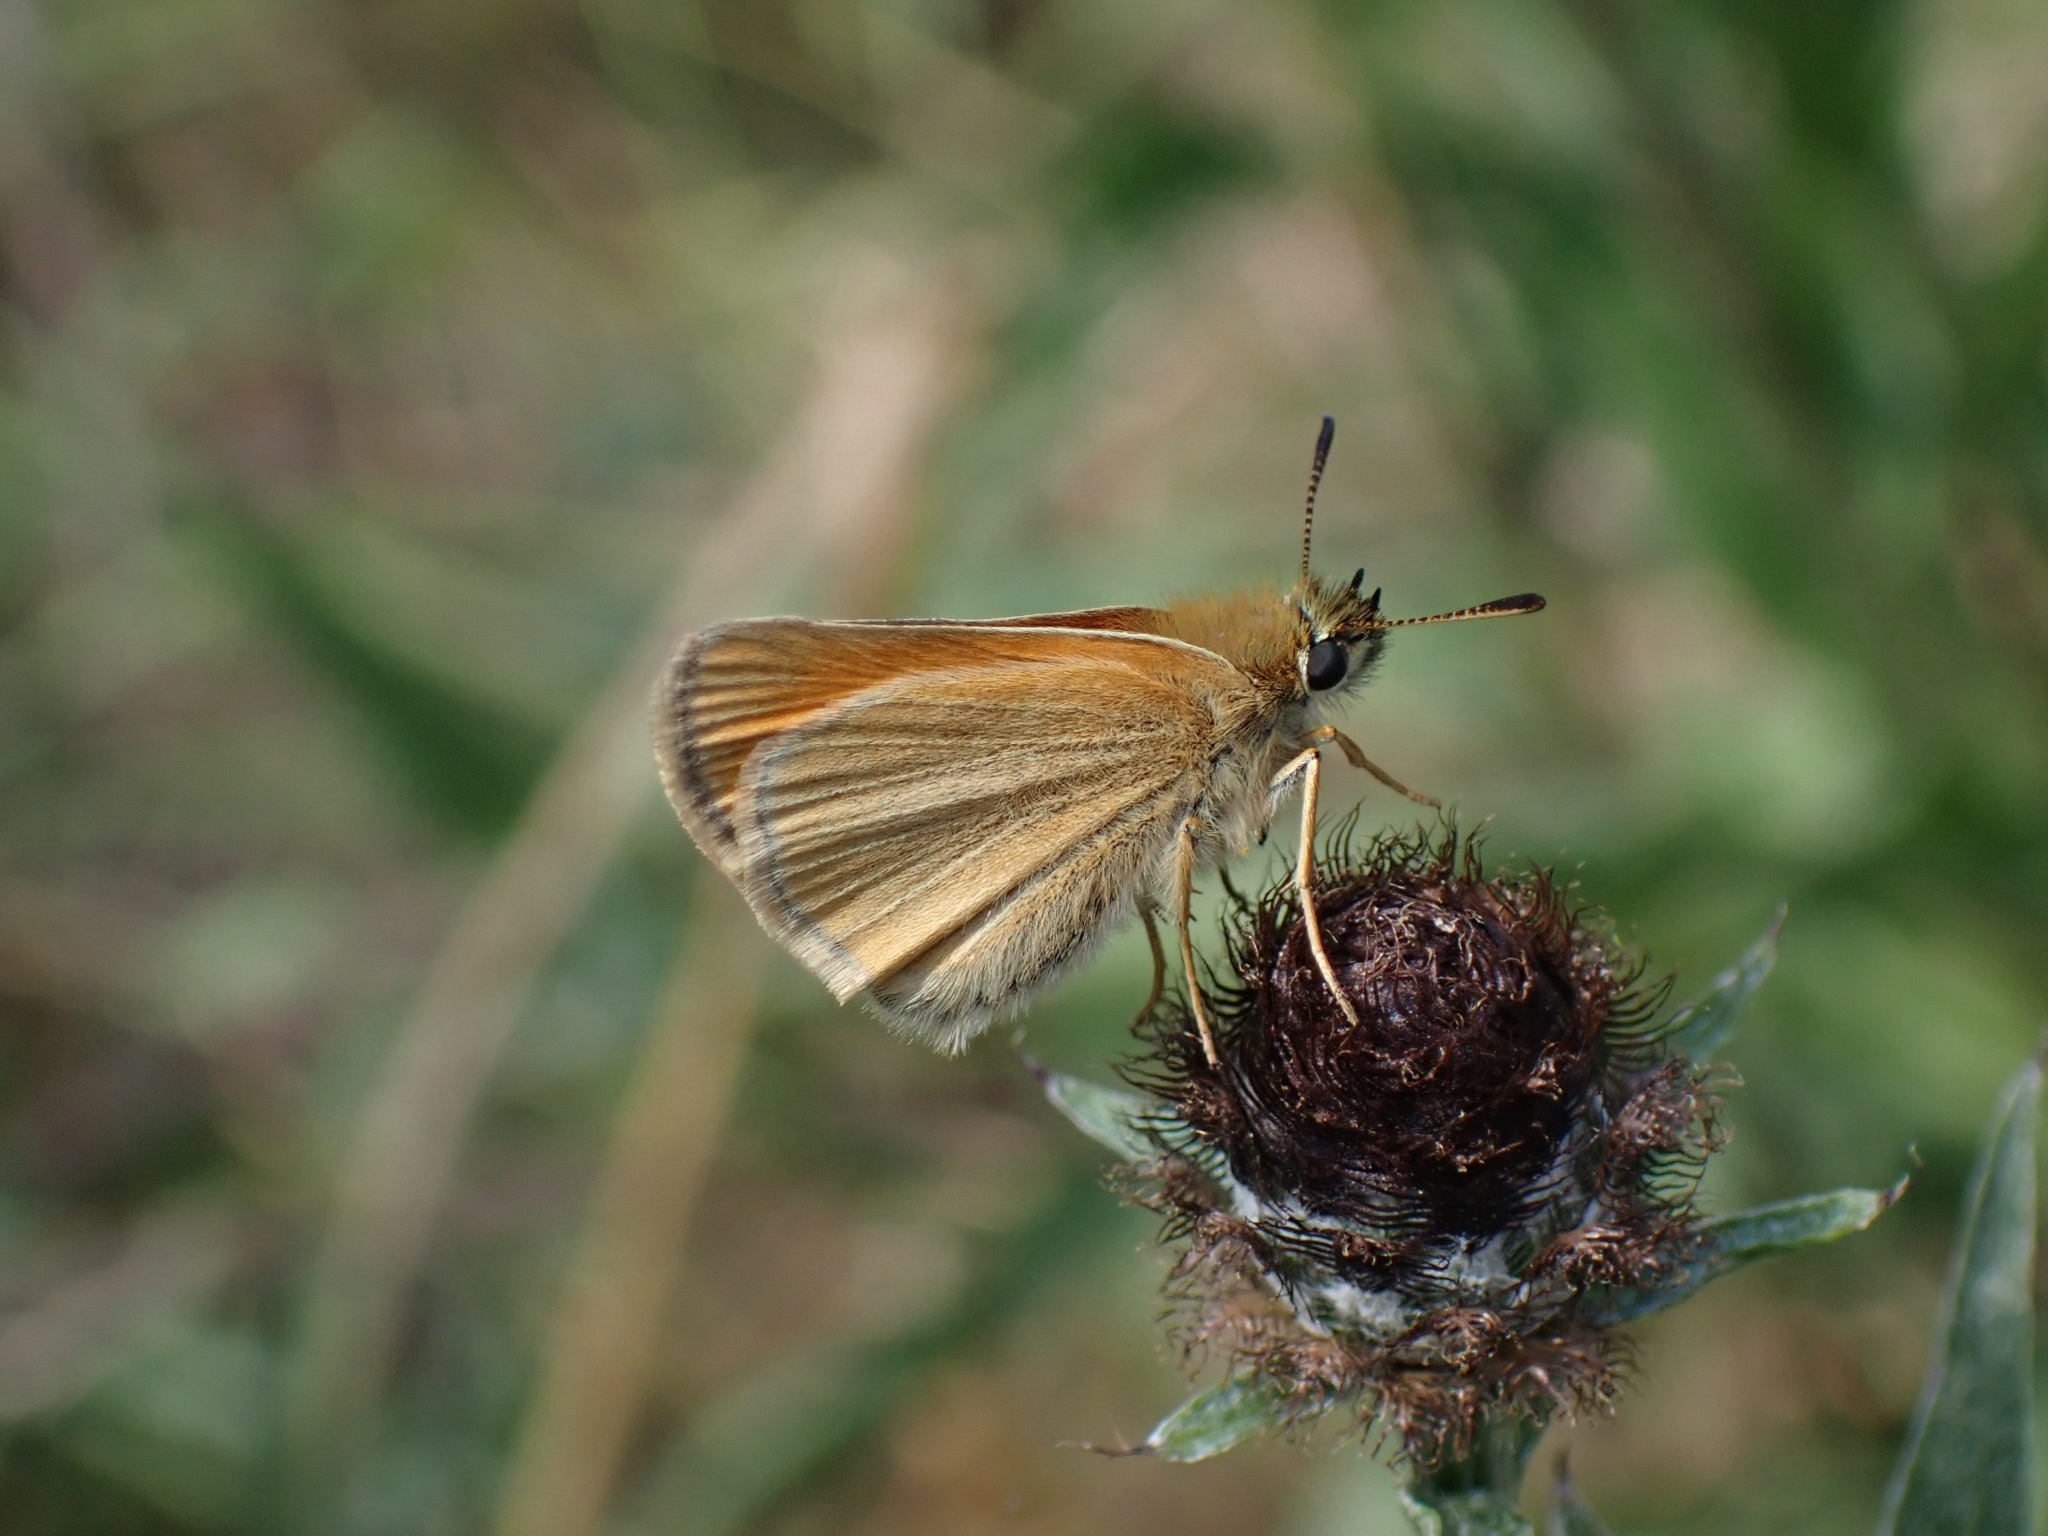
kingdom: Animalia
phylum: Arthropoda
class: Insecta
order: Lepidoptera
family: Hesperiidae
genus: Thymelicus
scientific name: Thymelicus lineola
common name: Essex skipper
